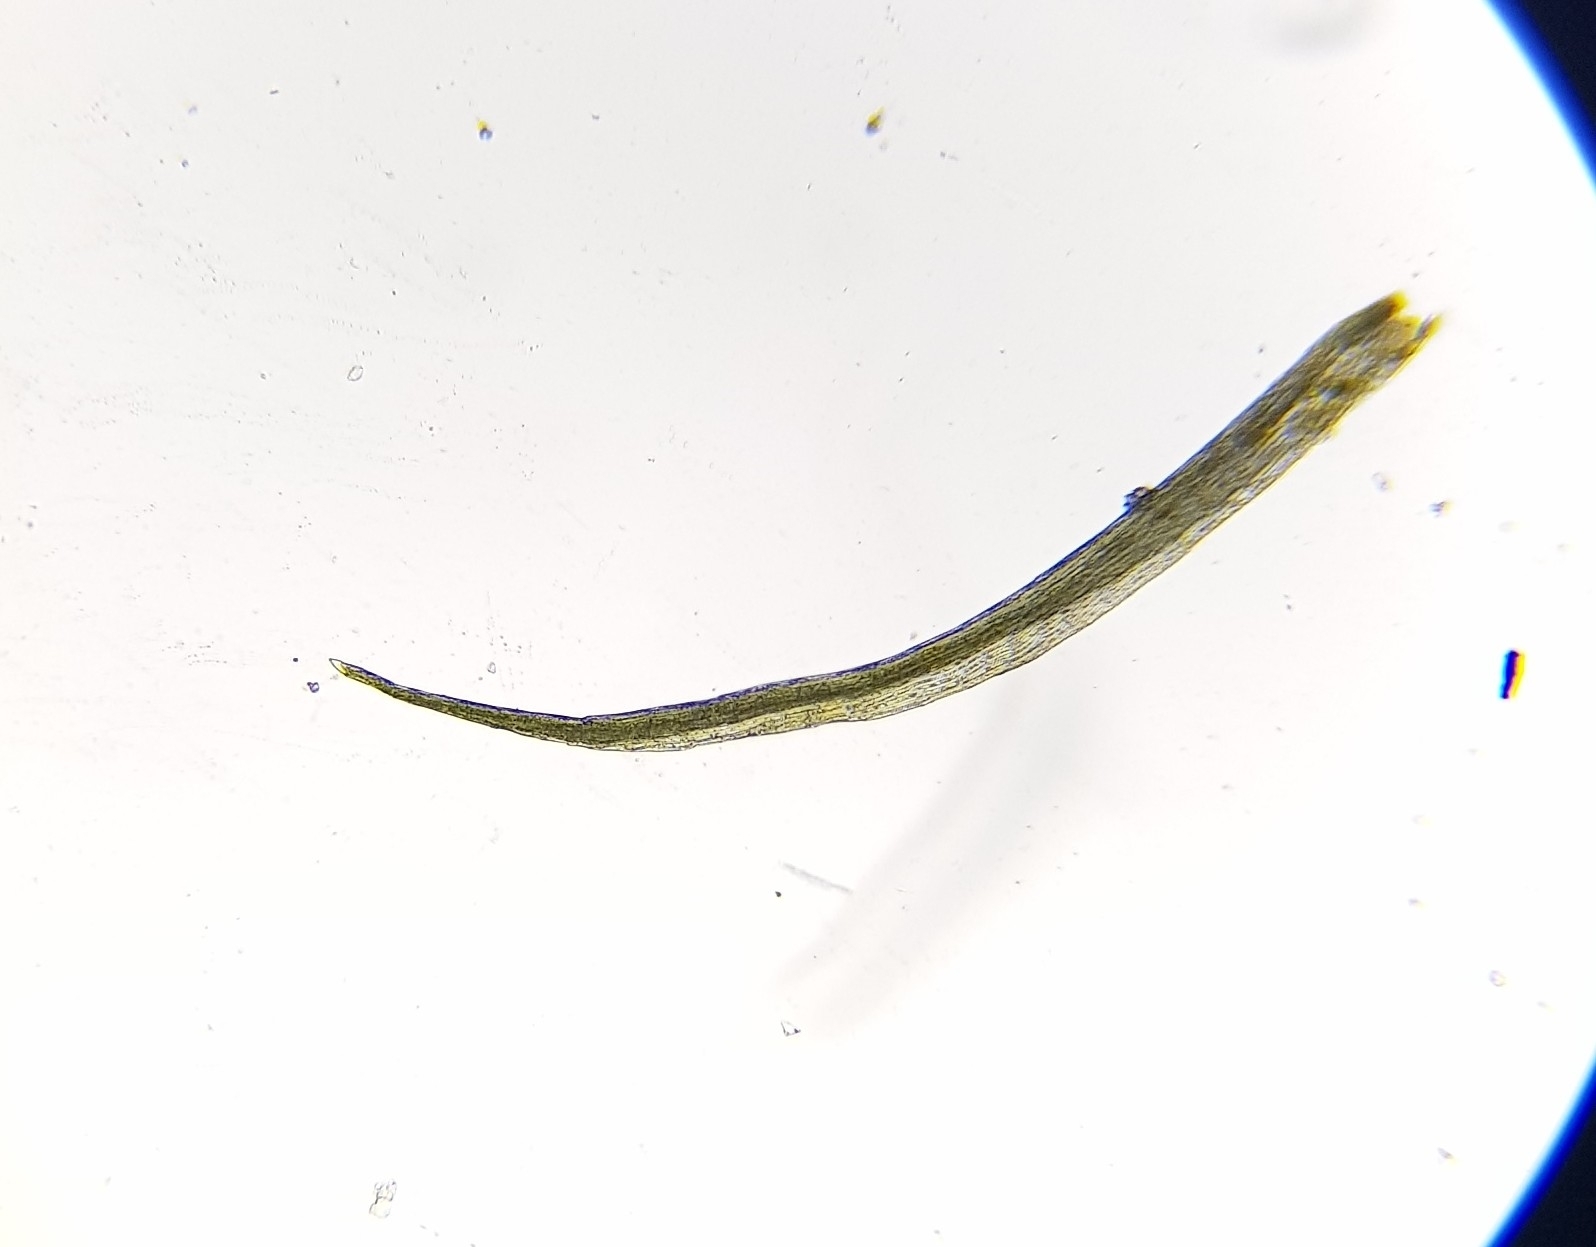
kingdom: Plantae
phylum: Bryophyta
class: Bryopsida
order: Orthodontiales
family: Orthodontiaceae
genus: Orthodontium
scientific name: Orthodontium lineare
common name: Cape thread-moss
